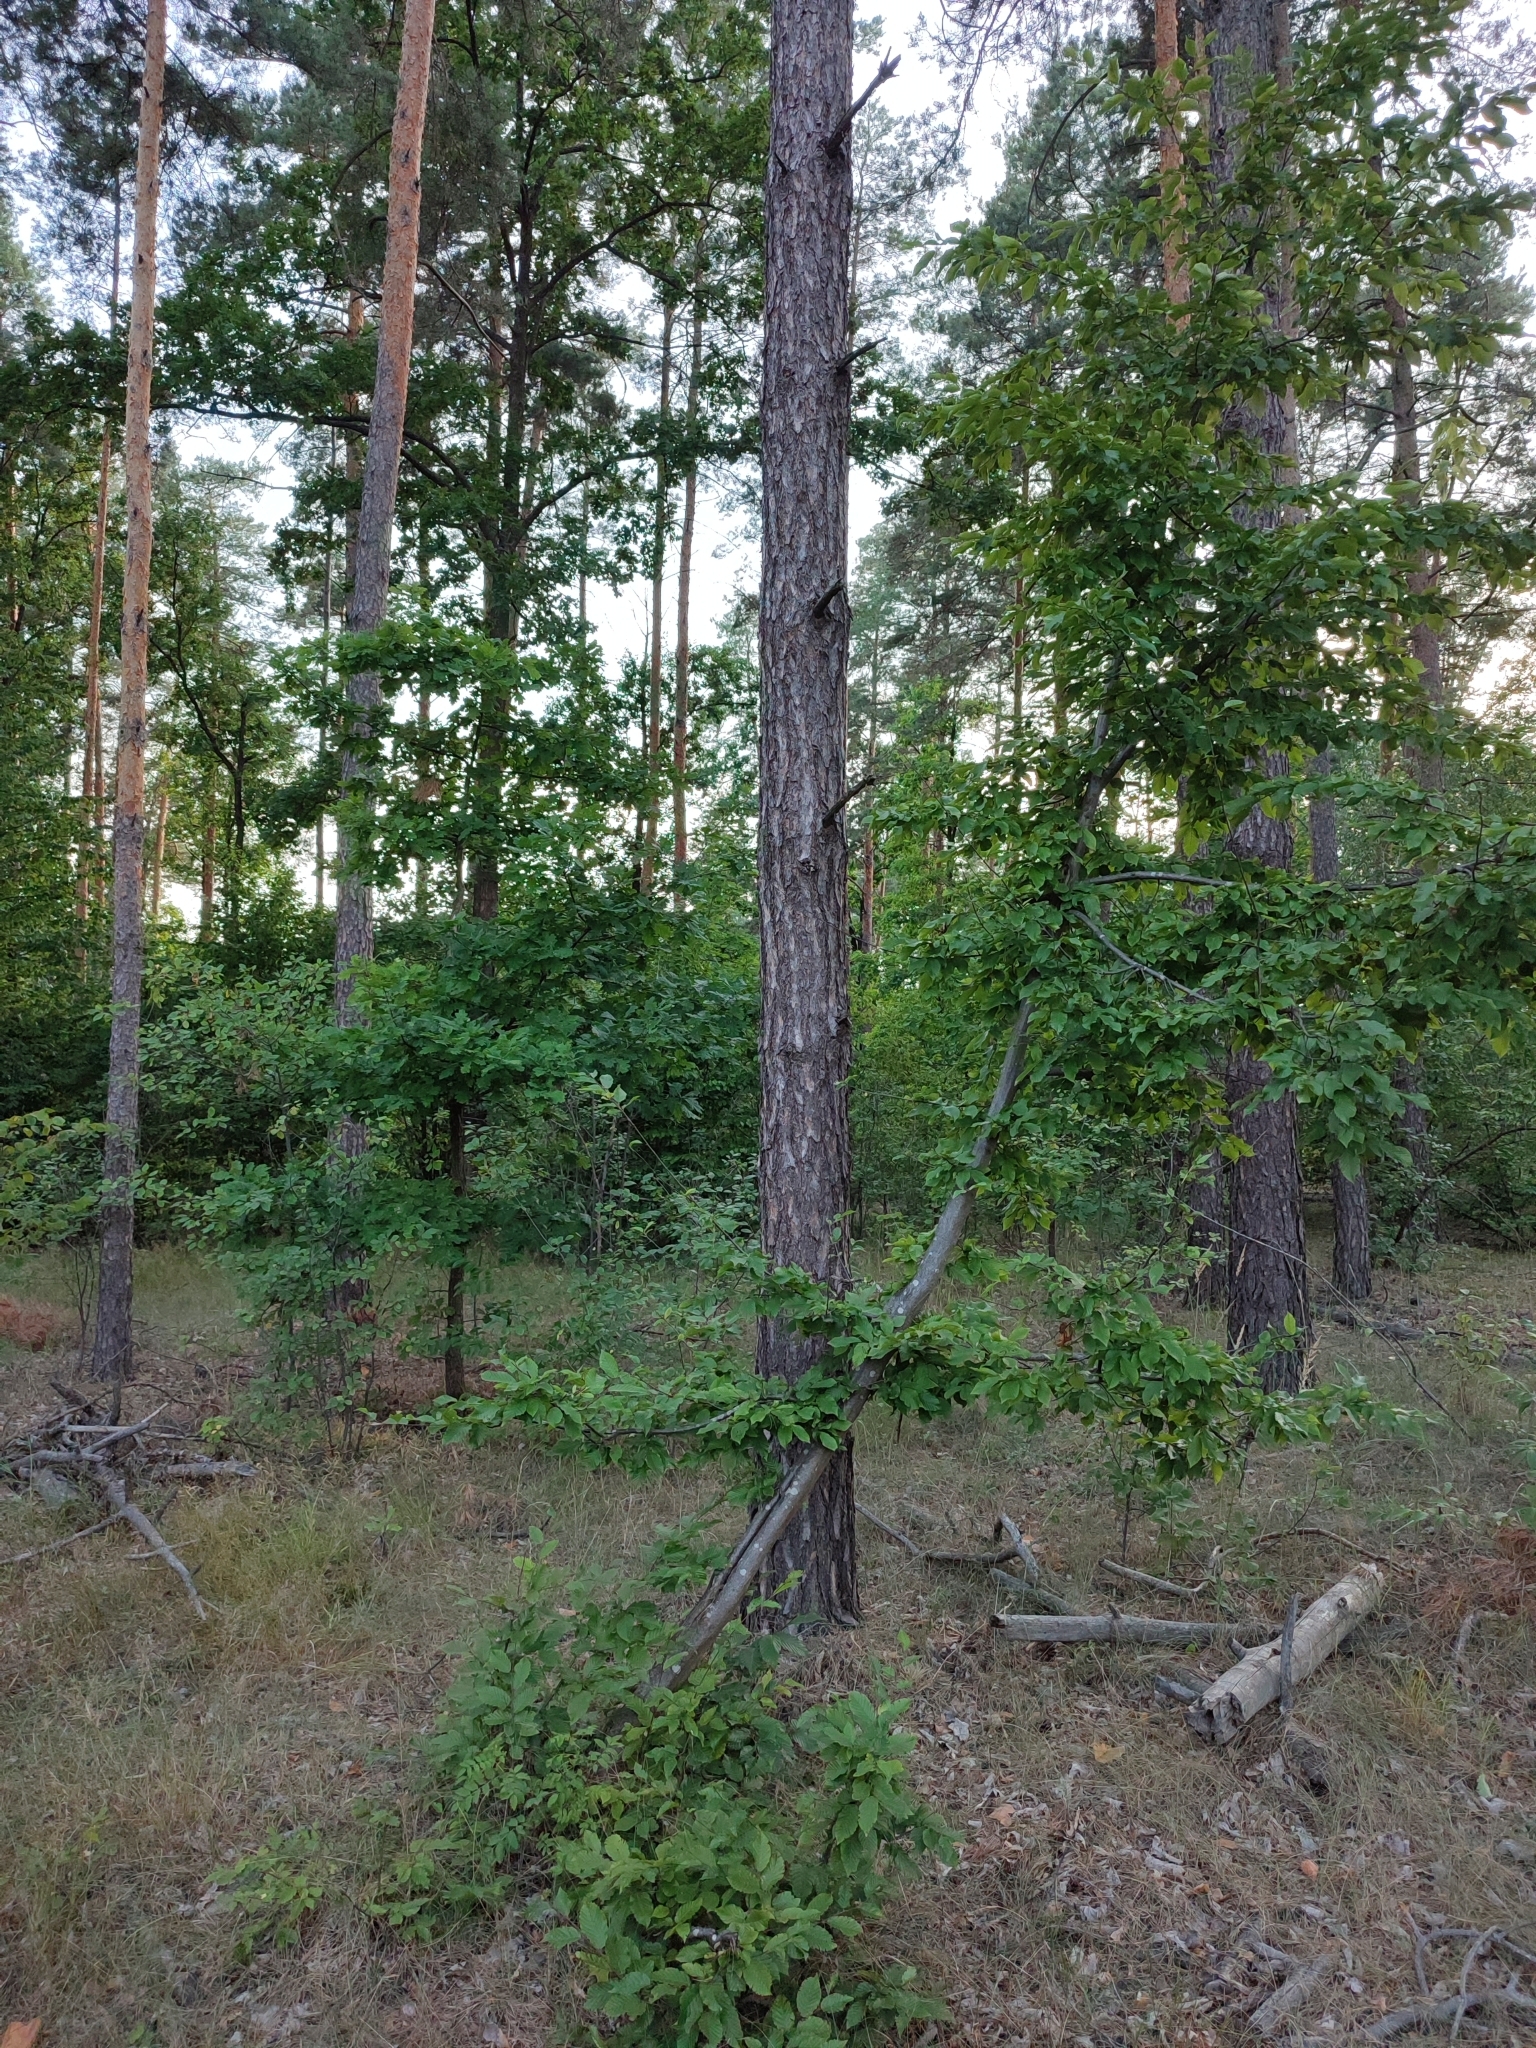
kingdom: Plantae
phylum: Tracheophyta
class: Magnoliopsida
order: Fagales
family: Betulaceae
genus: Carpinus
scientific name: Carpinus betulus
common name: Hornbeam
